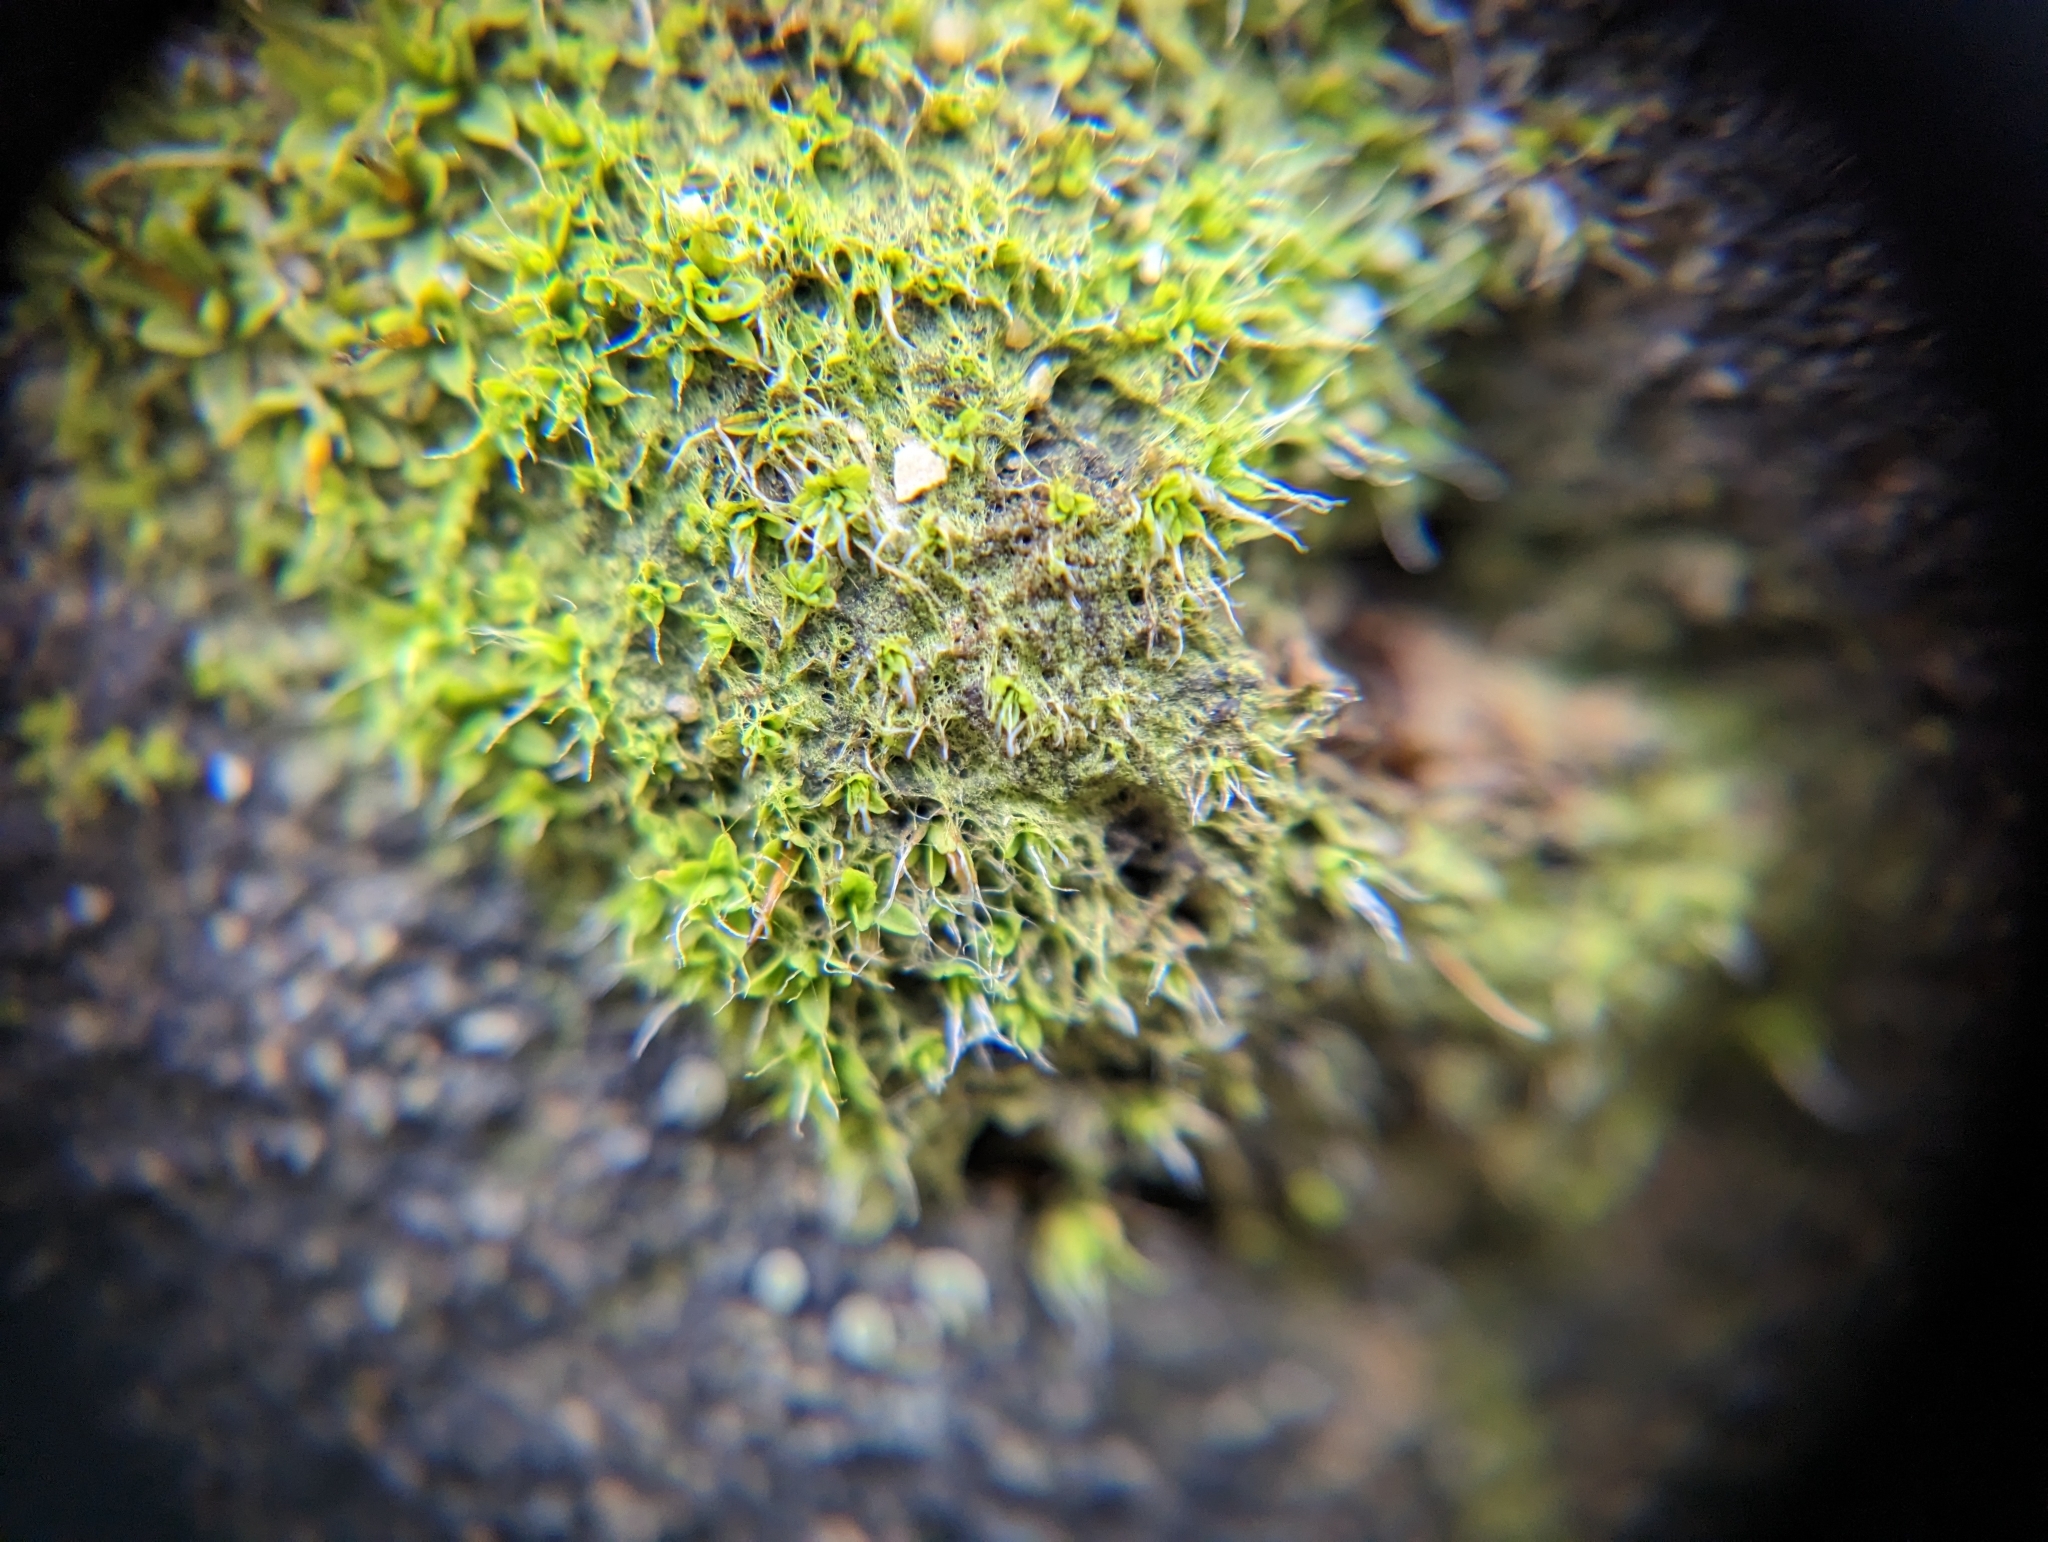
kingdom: Plantae
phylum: Bryophyta
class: Bryopsida
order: Pottiales
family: Pottiaceae
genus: Tortula
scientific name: Tortula muralis
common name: Wall screw-moss
